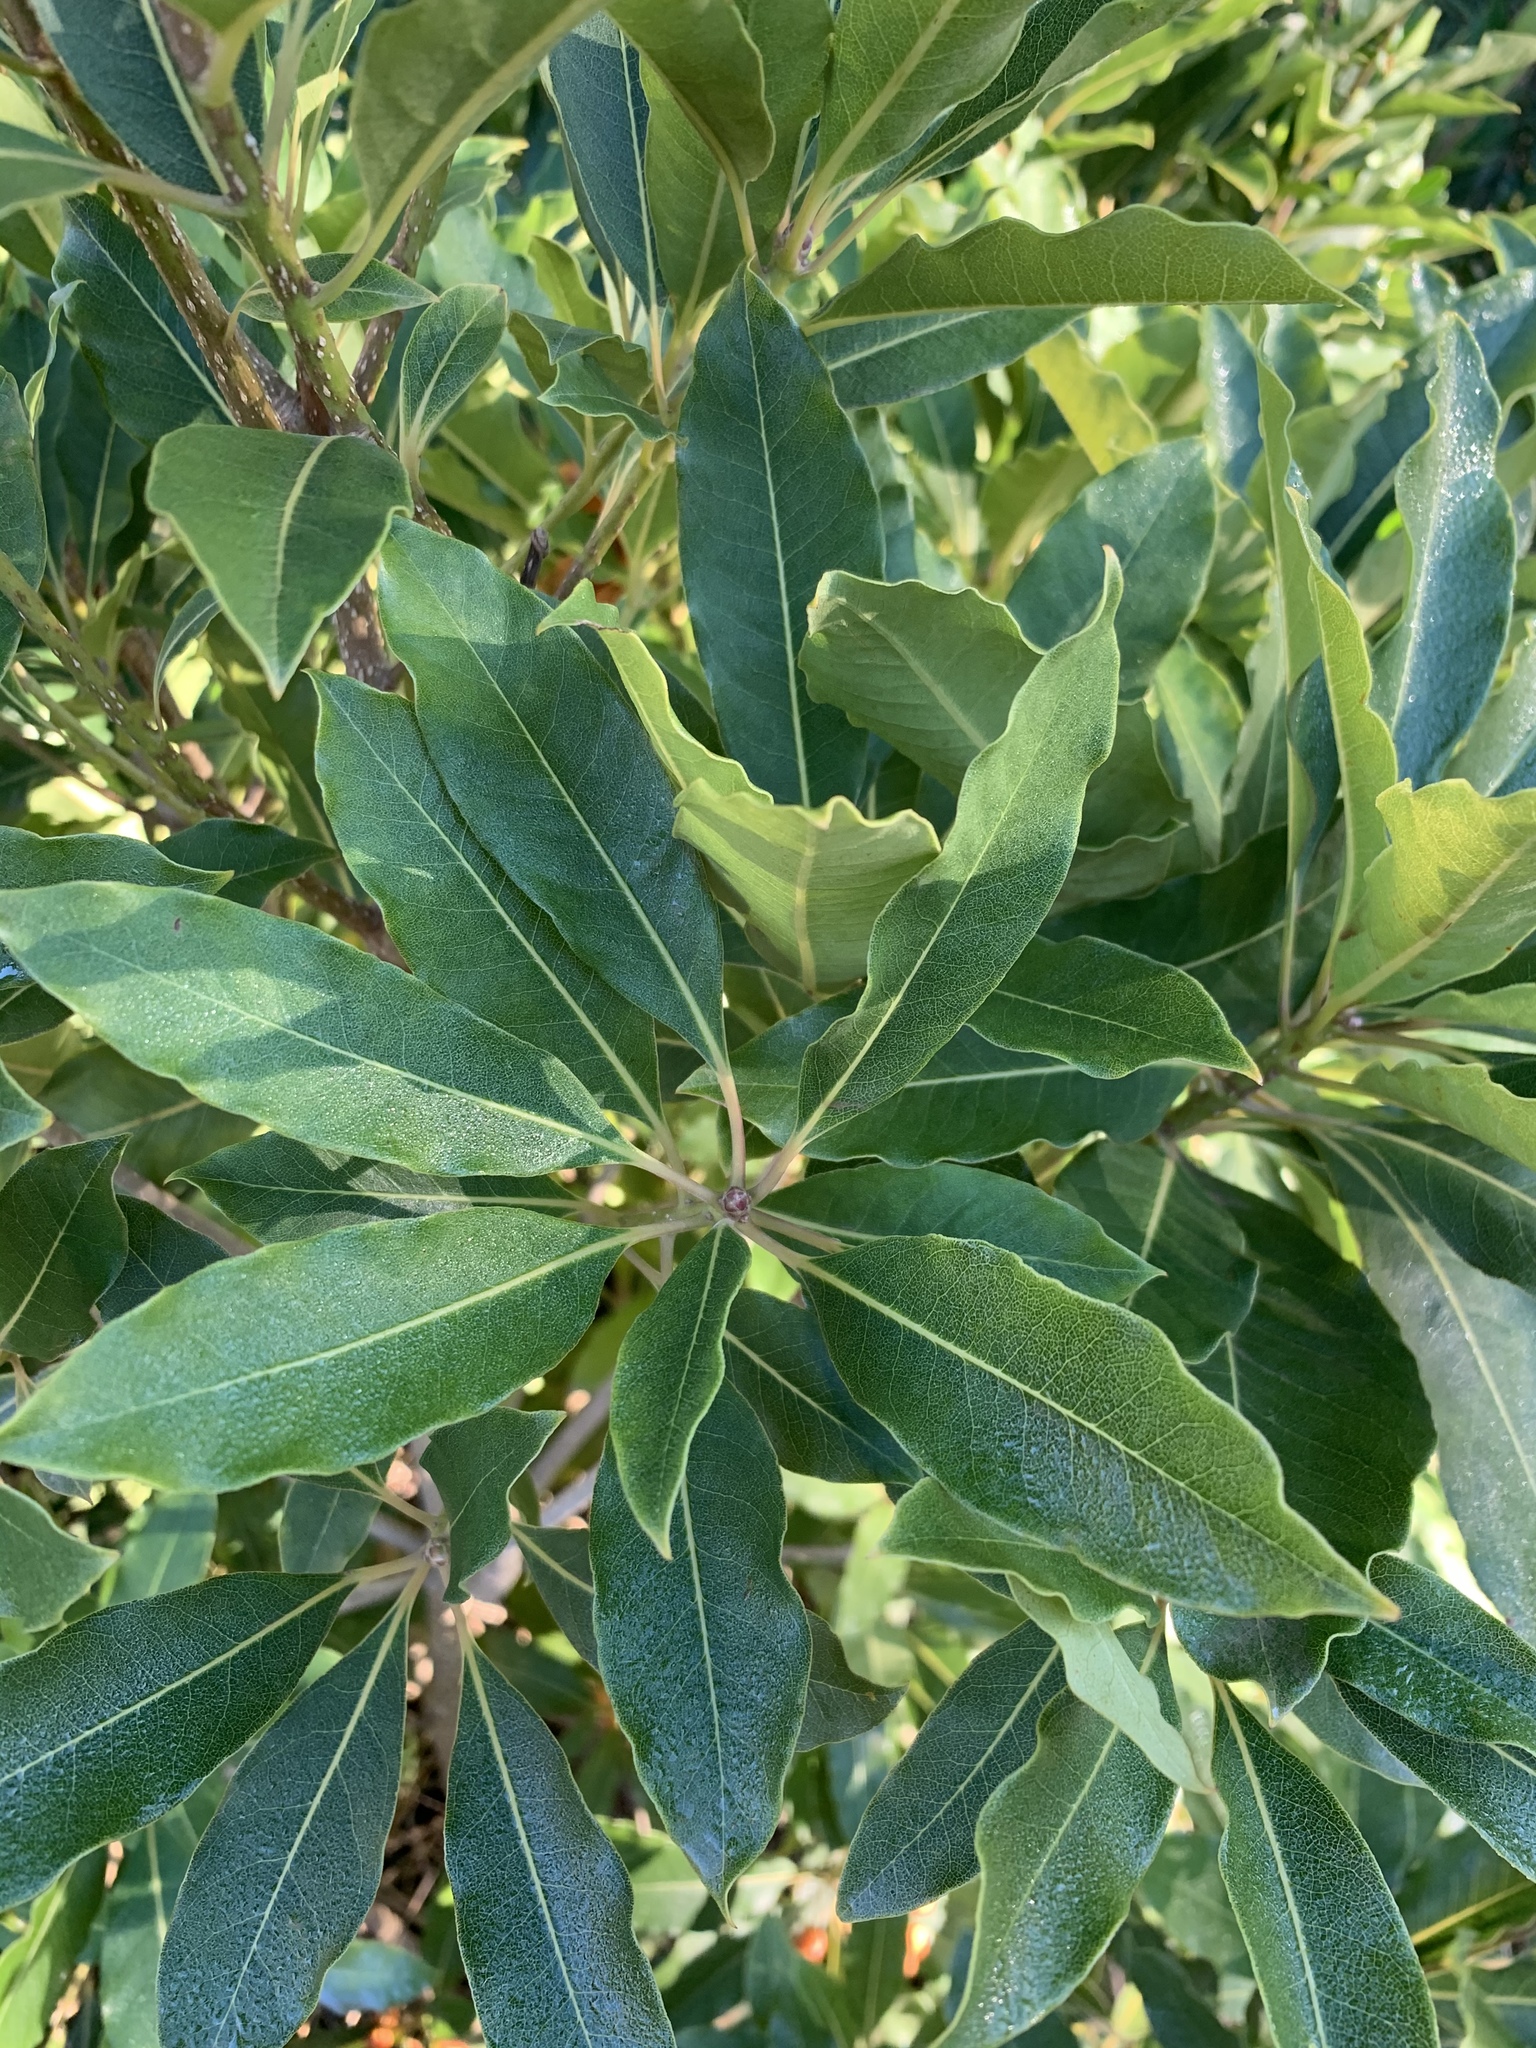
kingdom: Plantae
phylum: Tracheophyta
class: Magnoliopsida
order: Apiales
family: Pittosporaceae
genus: Pittosporum
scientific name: Pittosporum undulatum
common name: Australian cheesewood
